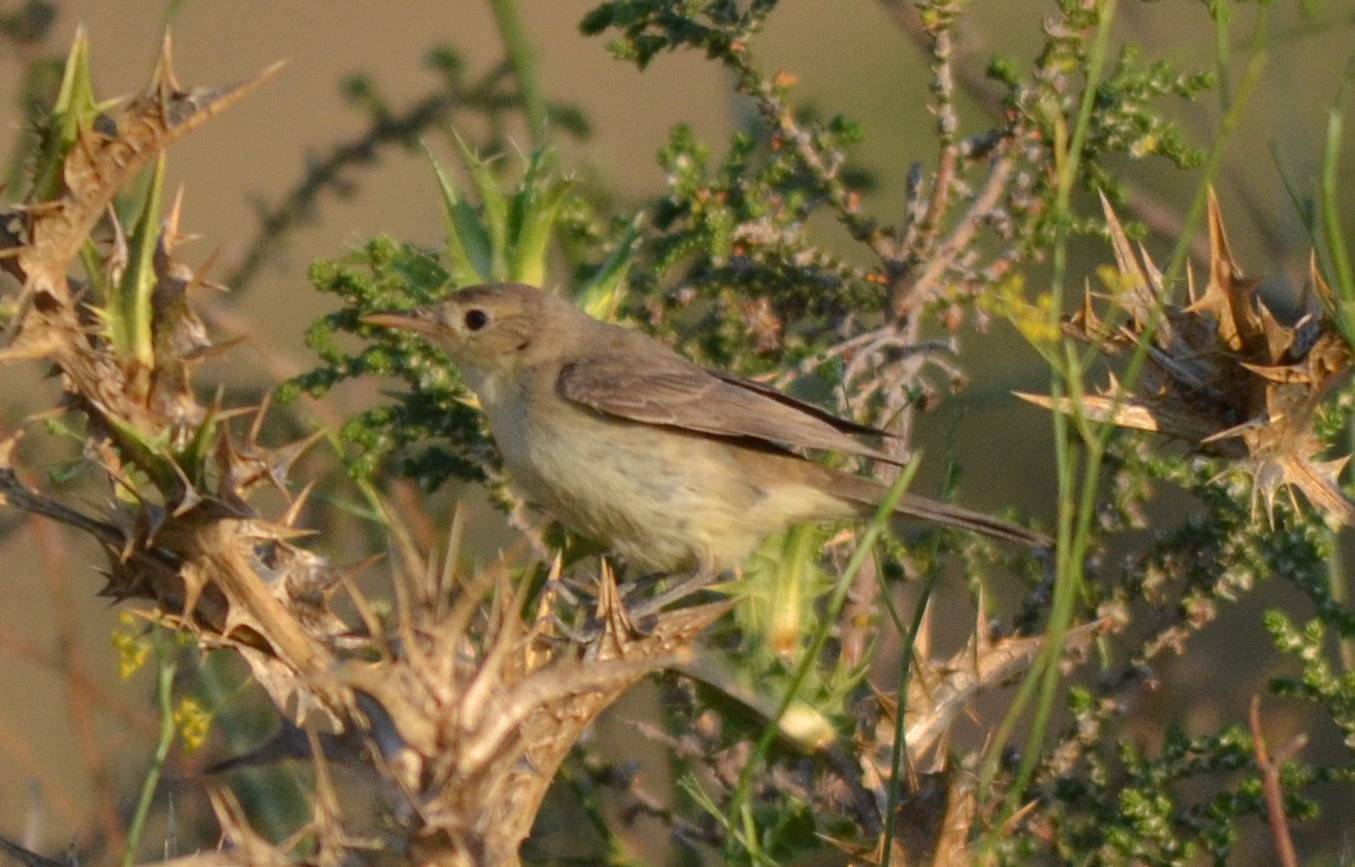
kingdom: Animalia
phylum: Chordata
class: Aves
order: Passeriformes
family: Acrocephalidae
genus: Hippolais
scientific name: Hippolais polyglotta
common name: Melodious warbler
